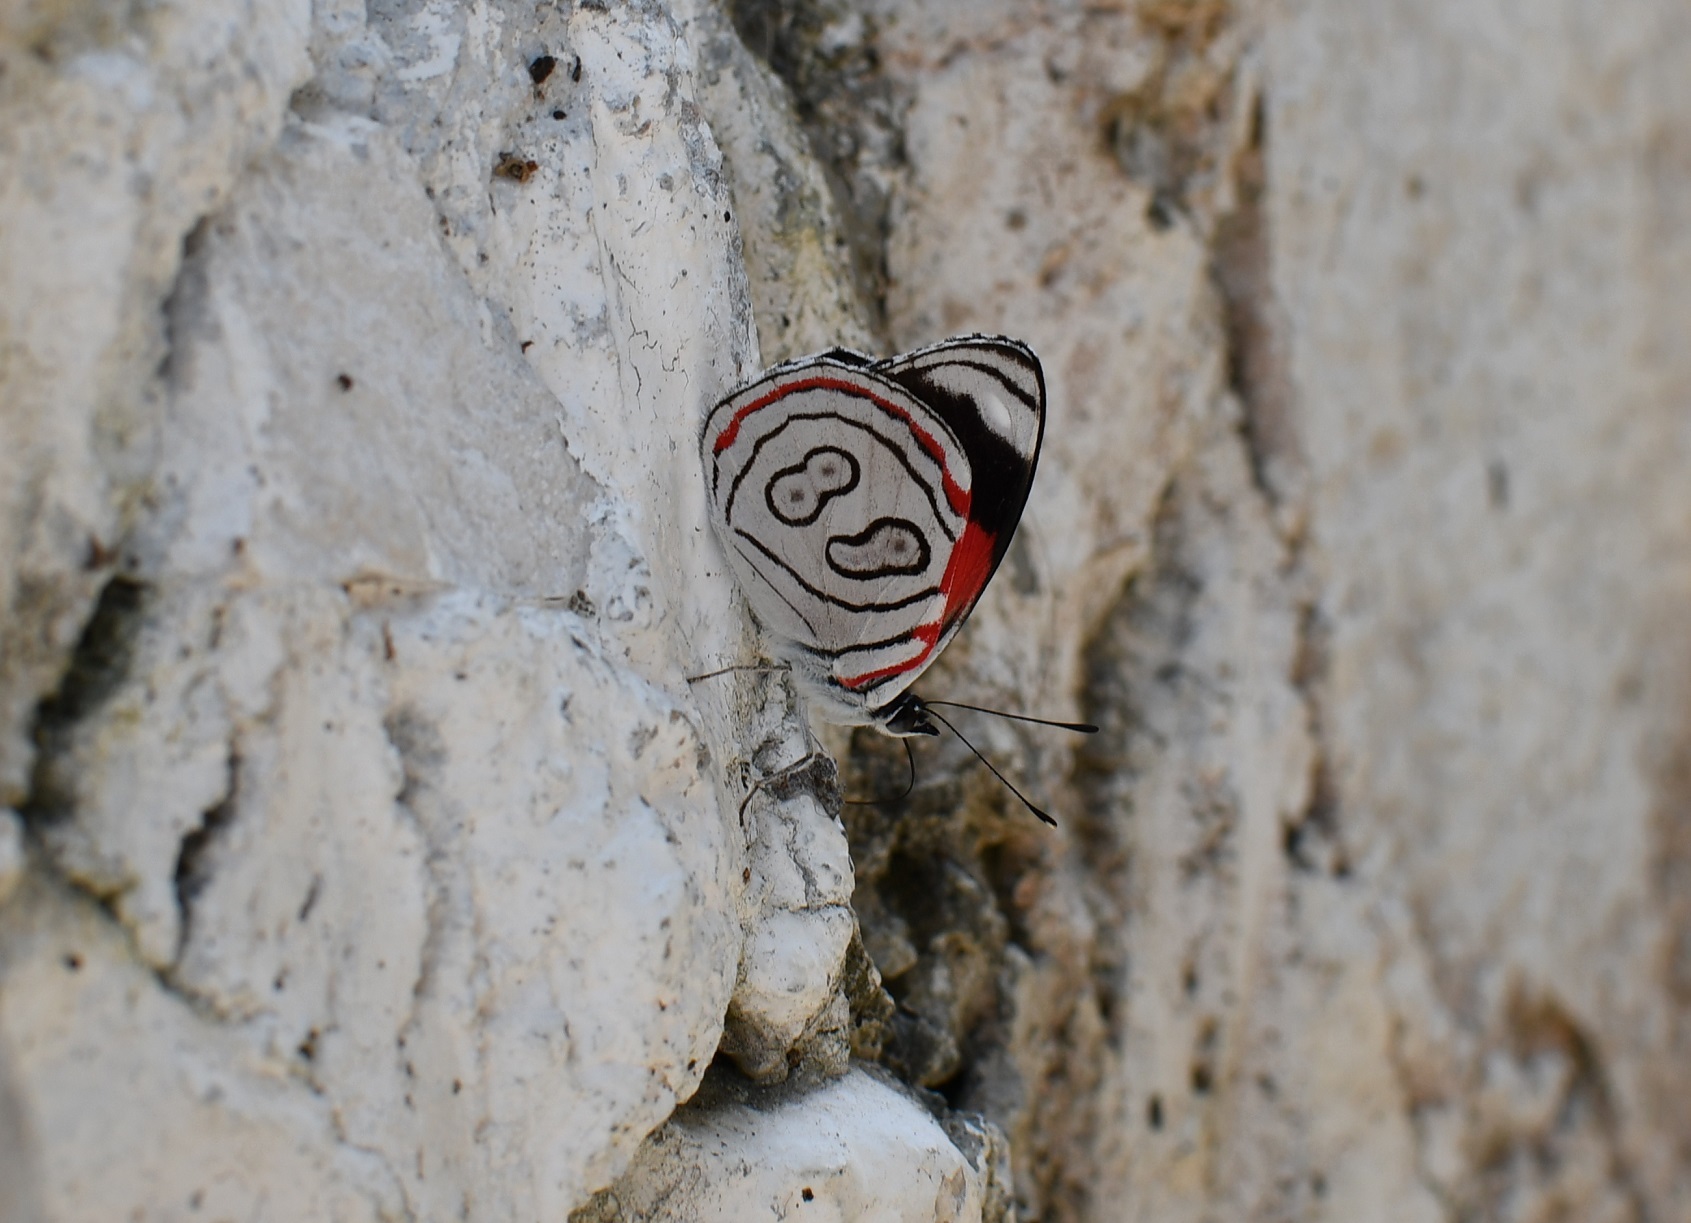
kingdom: Animalia
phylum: Arthropoda
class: Insecta
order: Lepidoptera
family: Nymphalidae
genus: Diaethria
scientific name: Diaethria astala
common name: Navy eighty-eight
